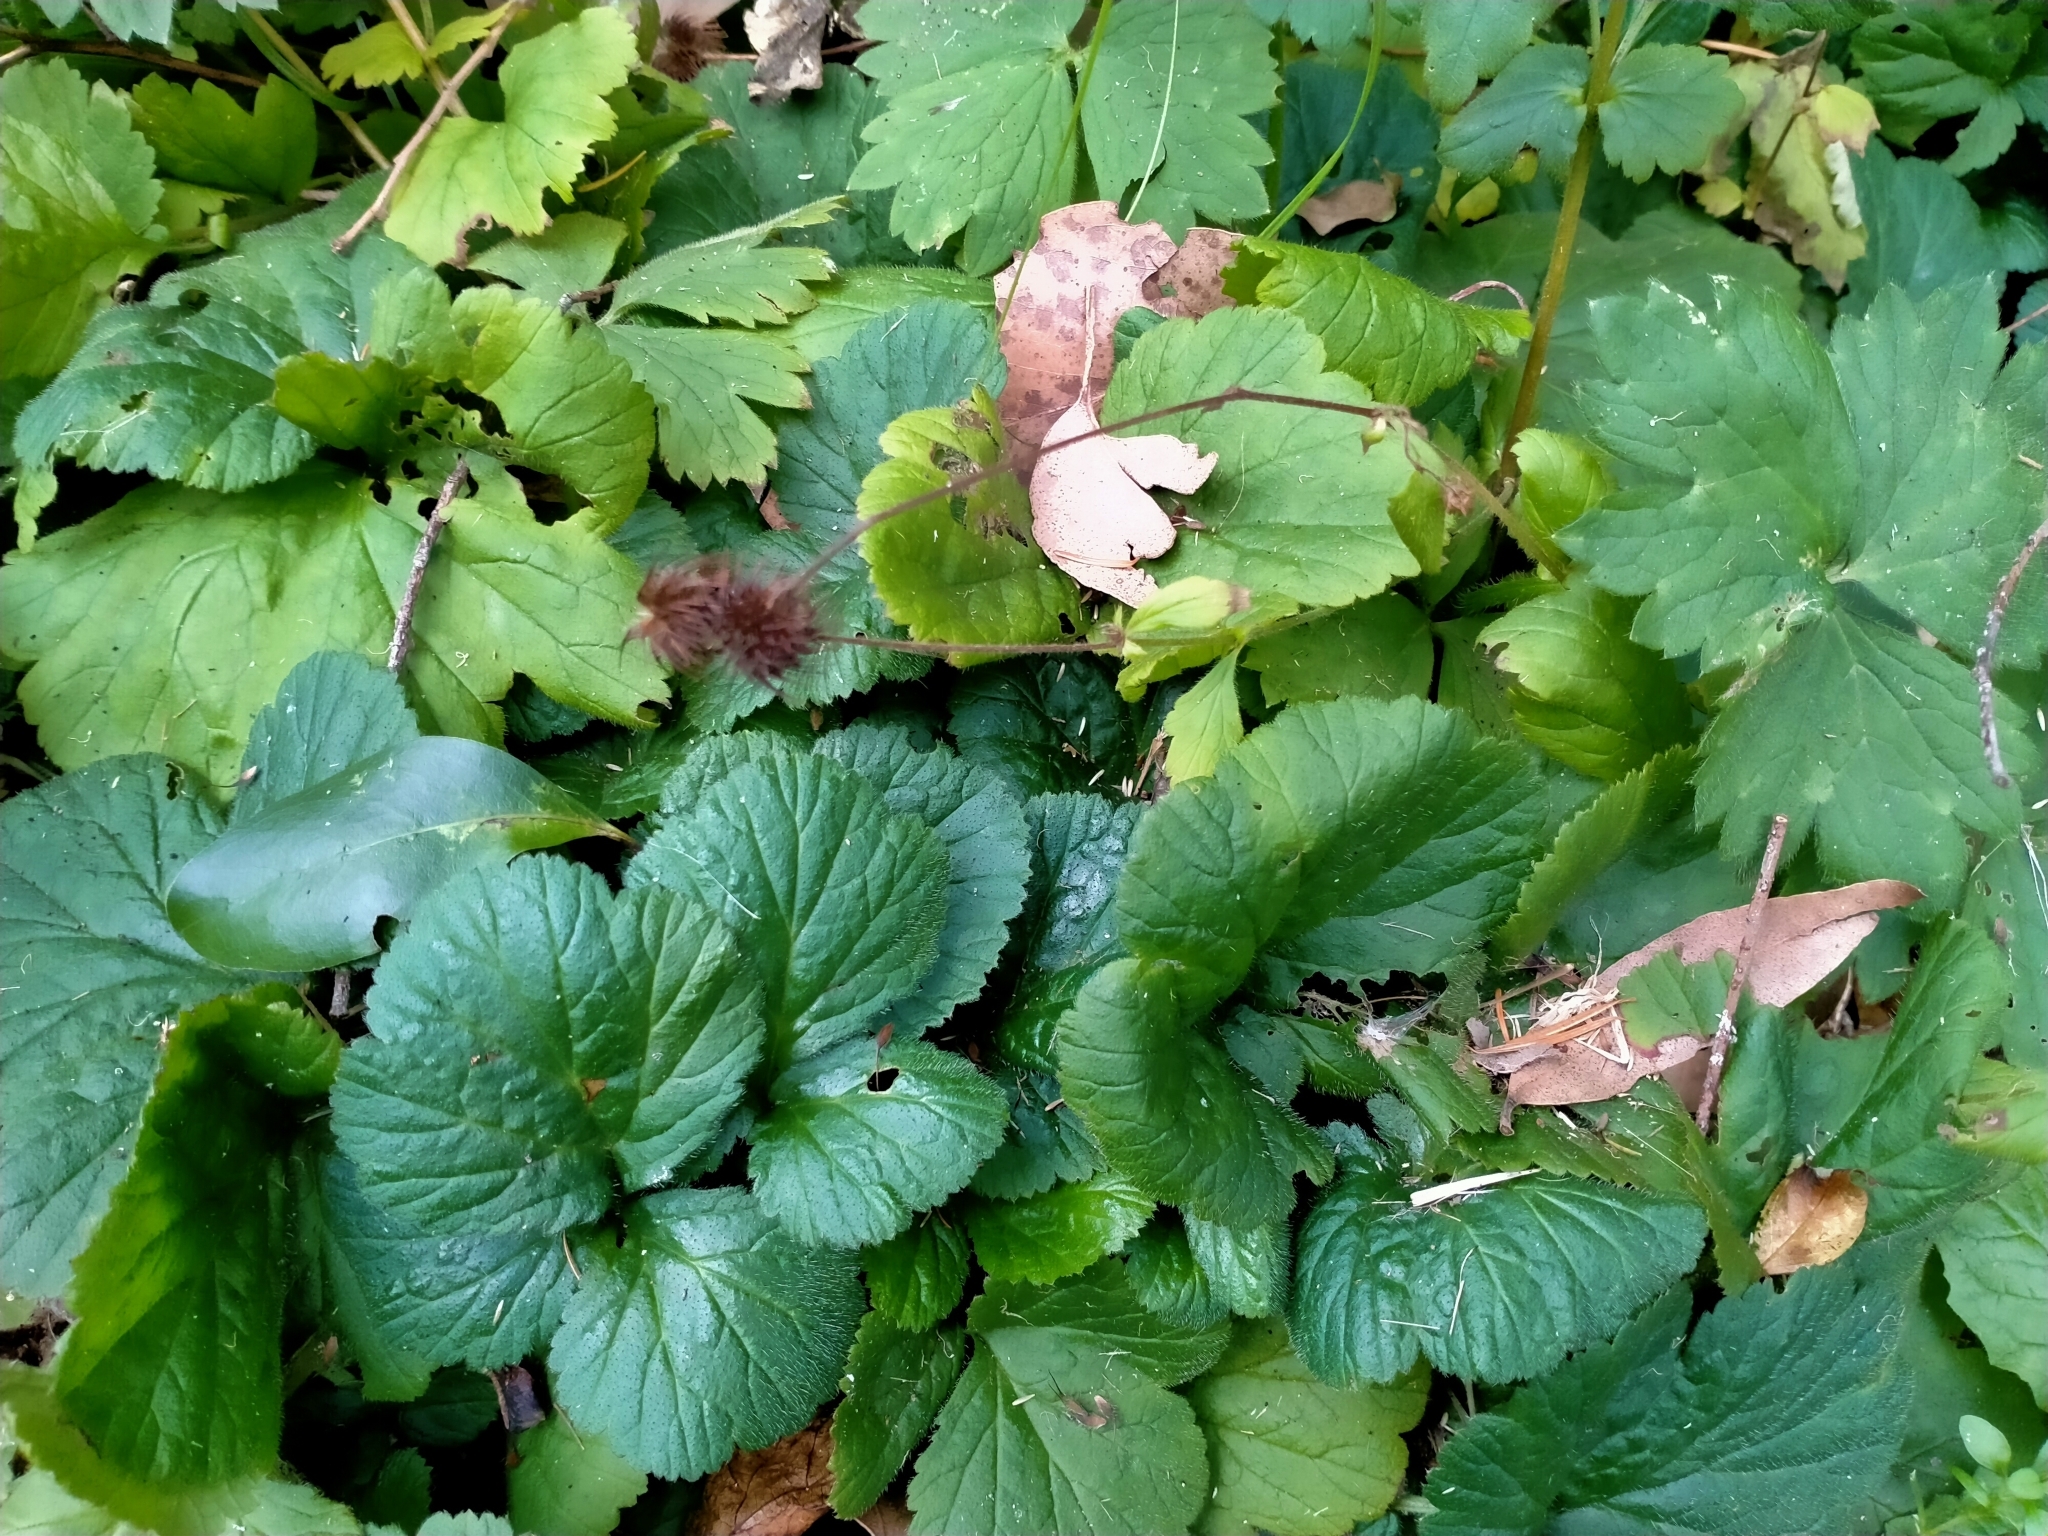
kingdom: Plantae
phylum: Tracheophyta
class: Magnoliopsida
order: Rosales
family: Rosaceae
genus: Geum
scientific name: Geum urbanum
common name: Wood avens
